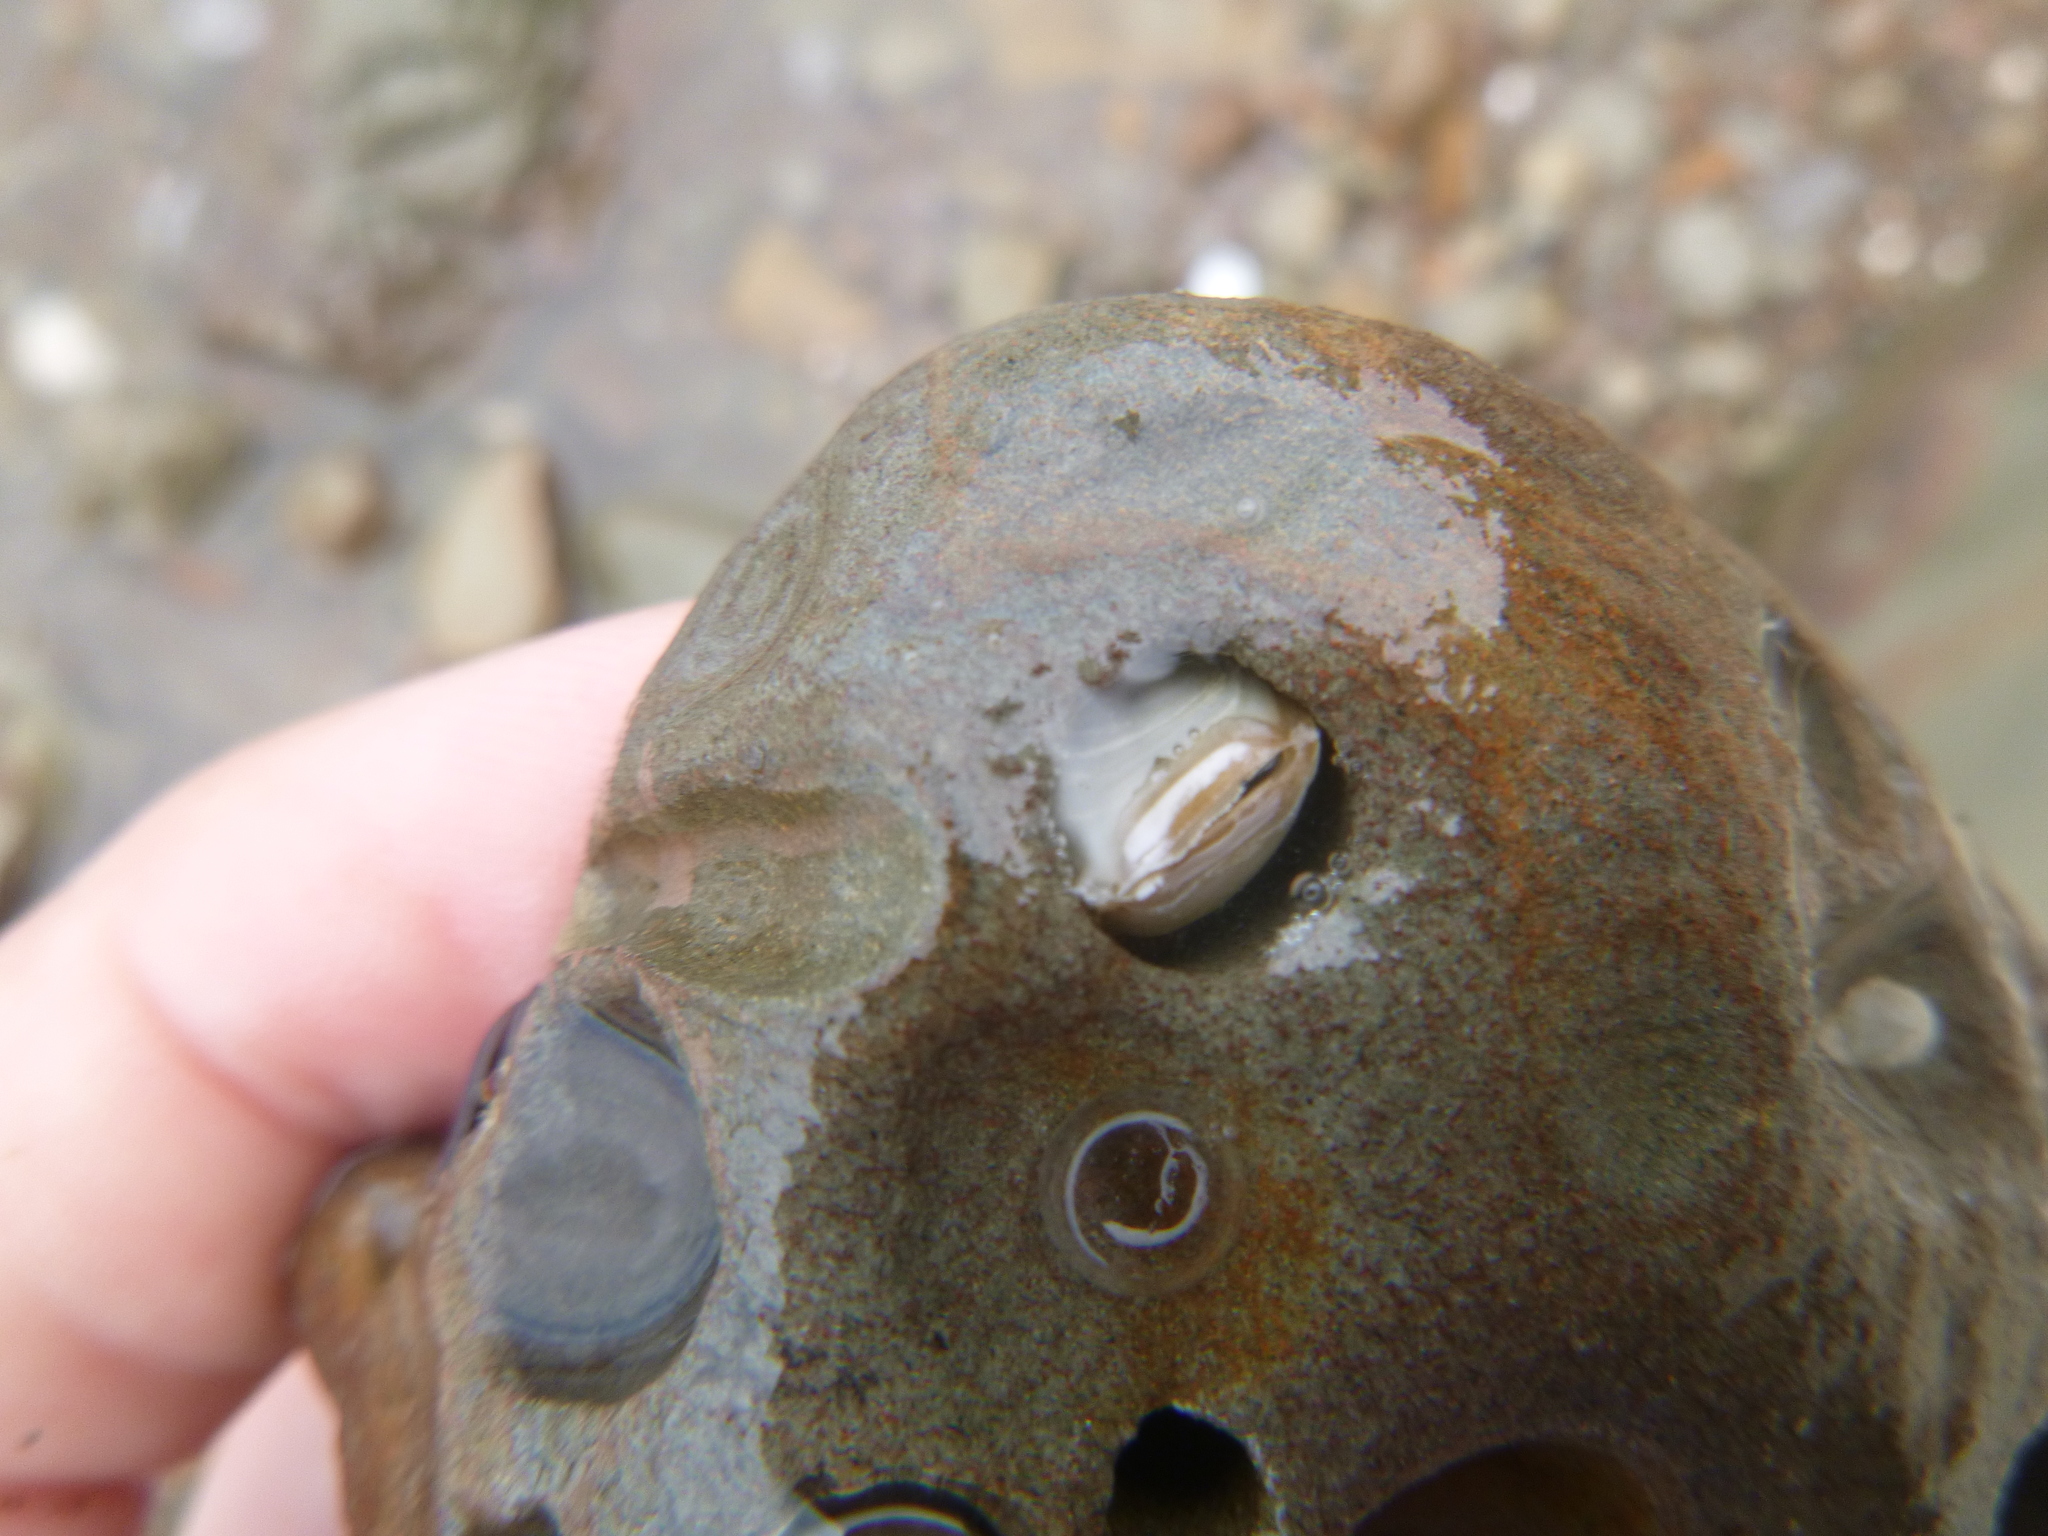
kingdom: Animalia
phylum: Mollusca
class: Bivalvia
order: Myida
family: Pholadidae
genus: Pholadidea
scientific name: Pholadidea tridens
